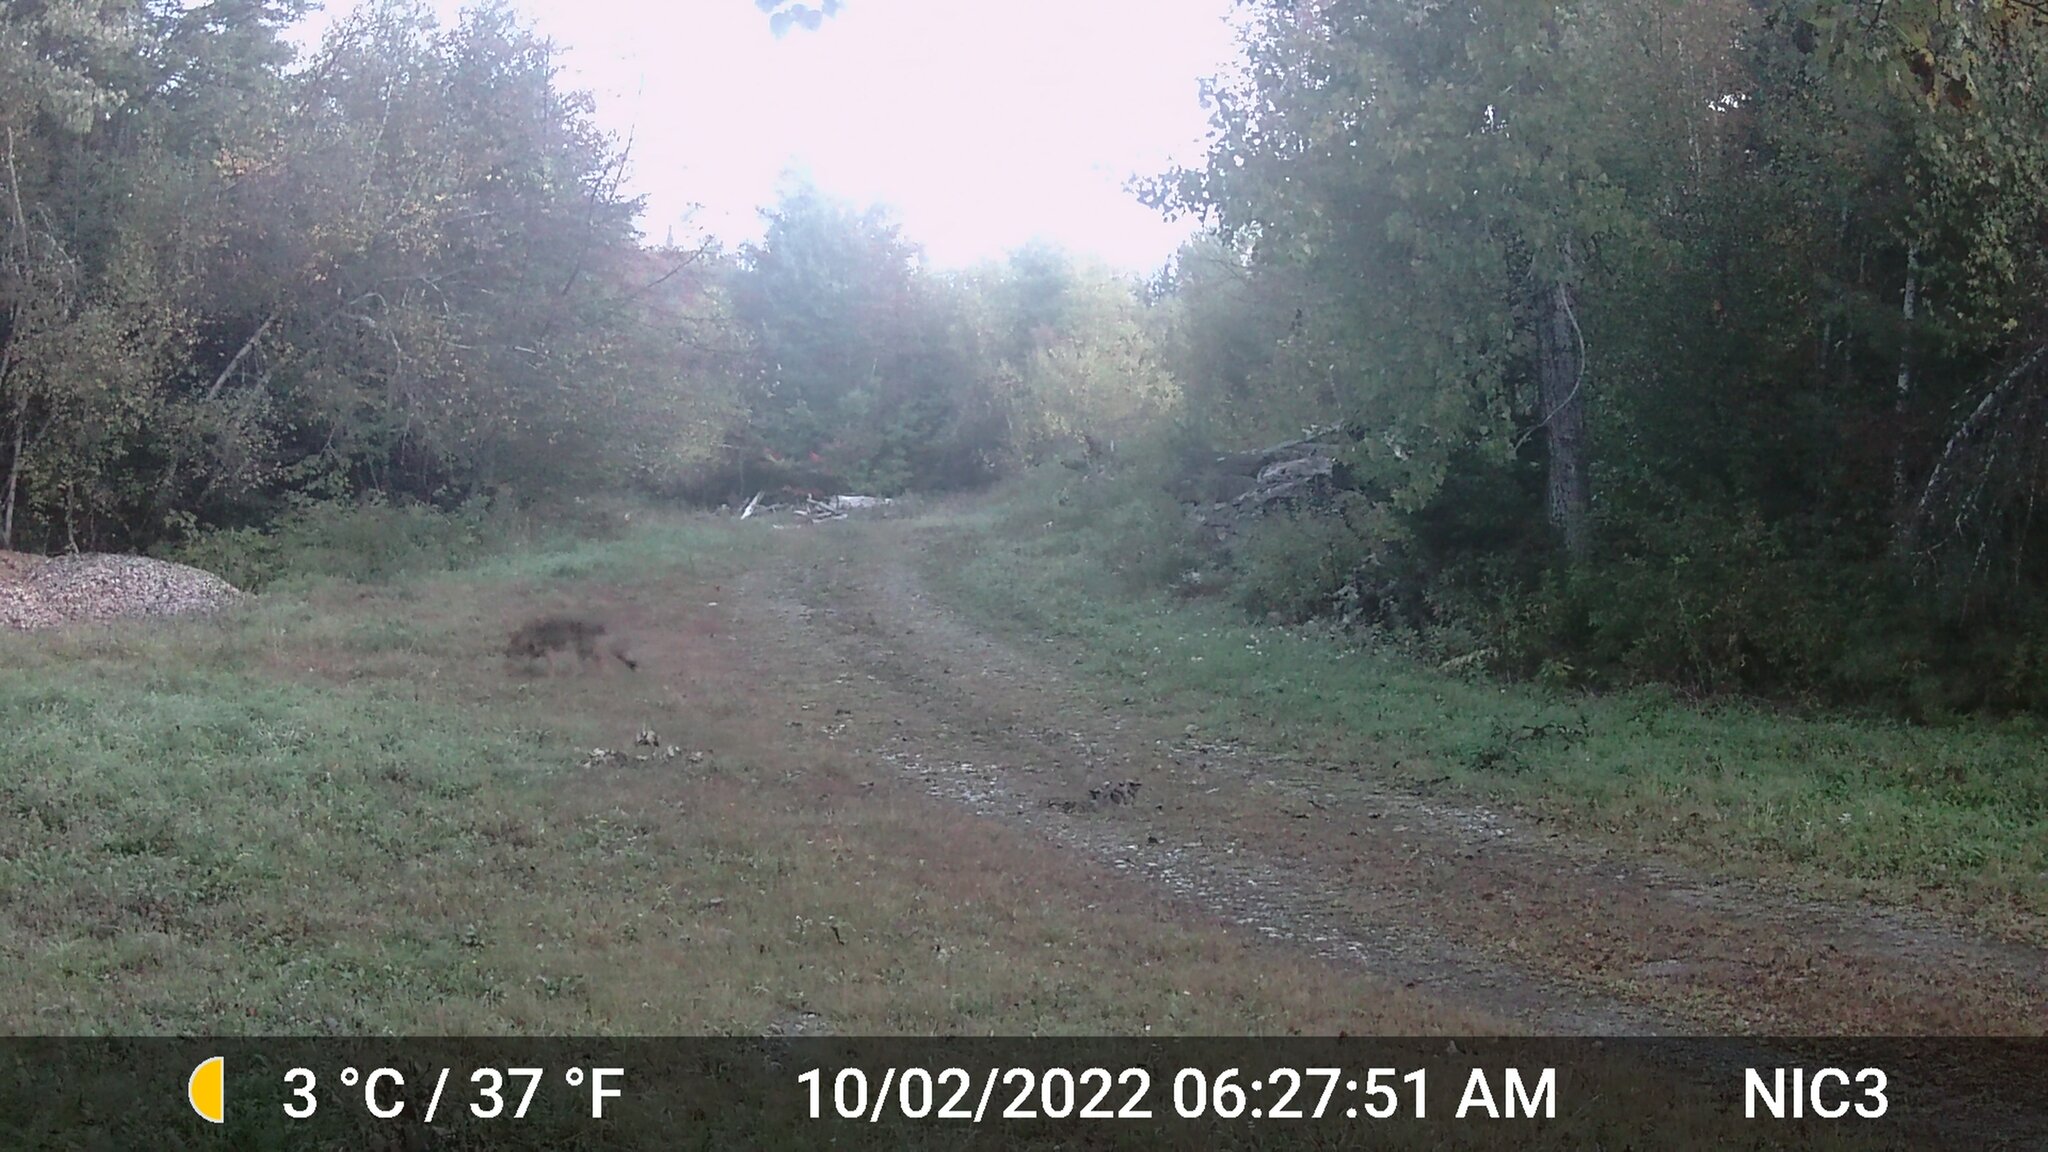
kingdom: Animalia
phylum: Chordata
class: Mammalia
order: Carnivora
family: Canidae
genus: Canis
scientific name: Canis latrans
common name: Coyote
